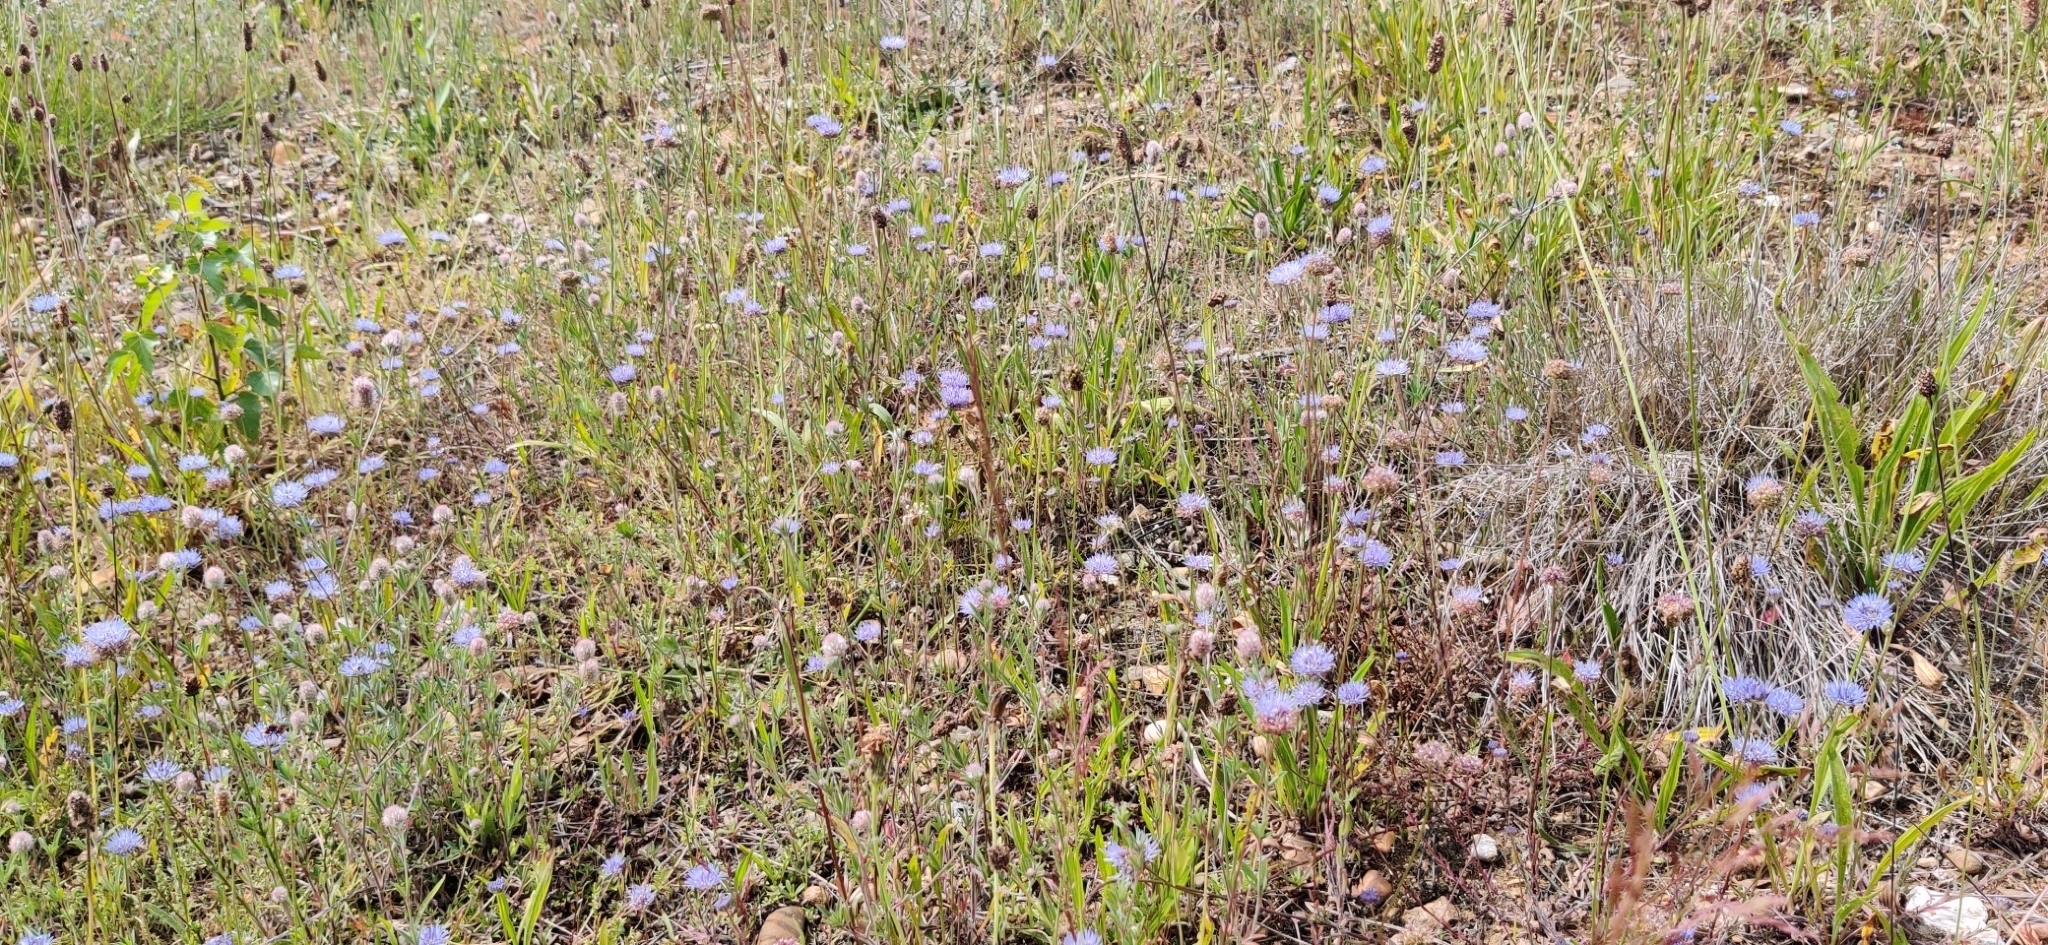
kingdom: Plantae
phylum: Tracheophyta
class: Magnoliopsida
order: Asterales
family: Campanulaceae
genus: Jasione
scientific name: Jasione montana
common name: Sheep's-bit
